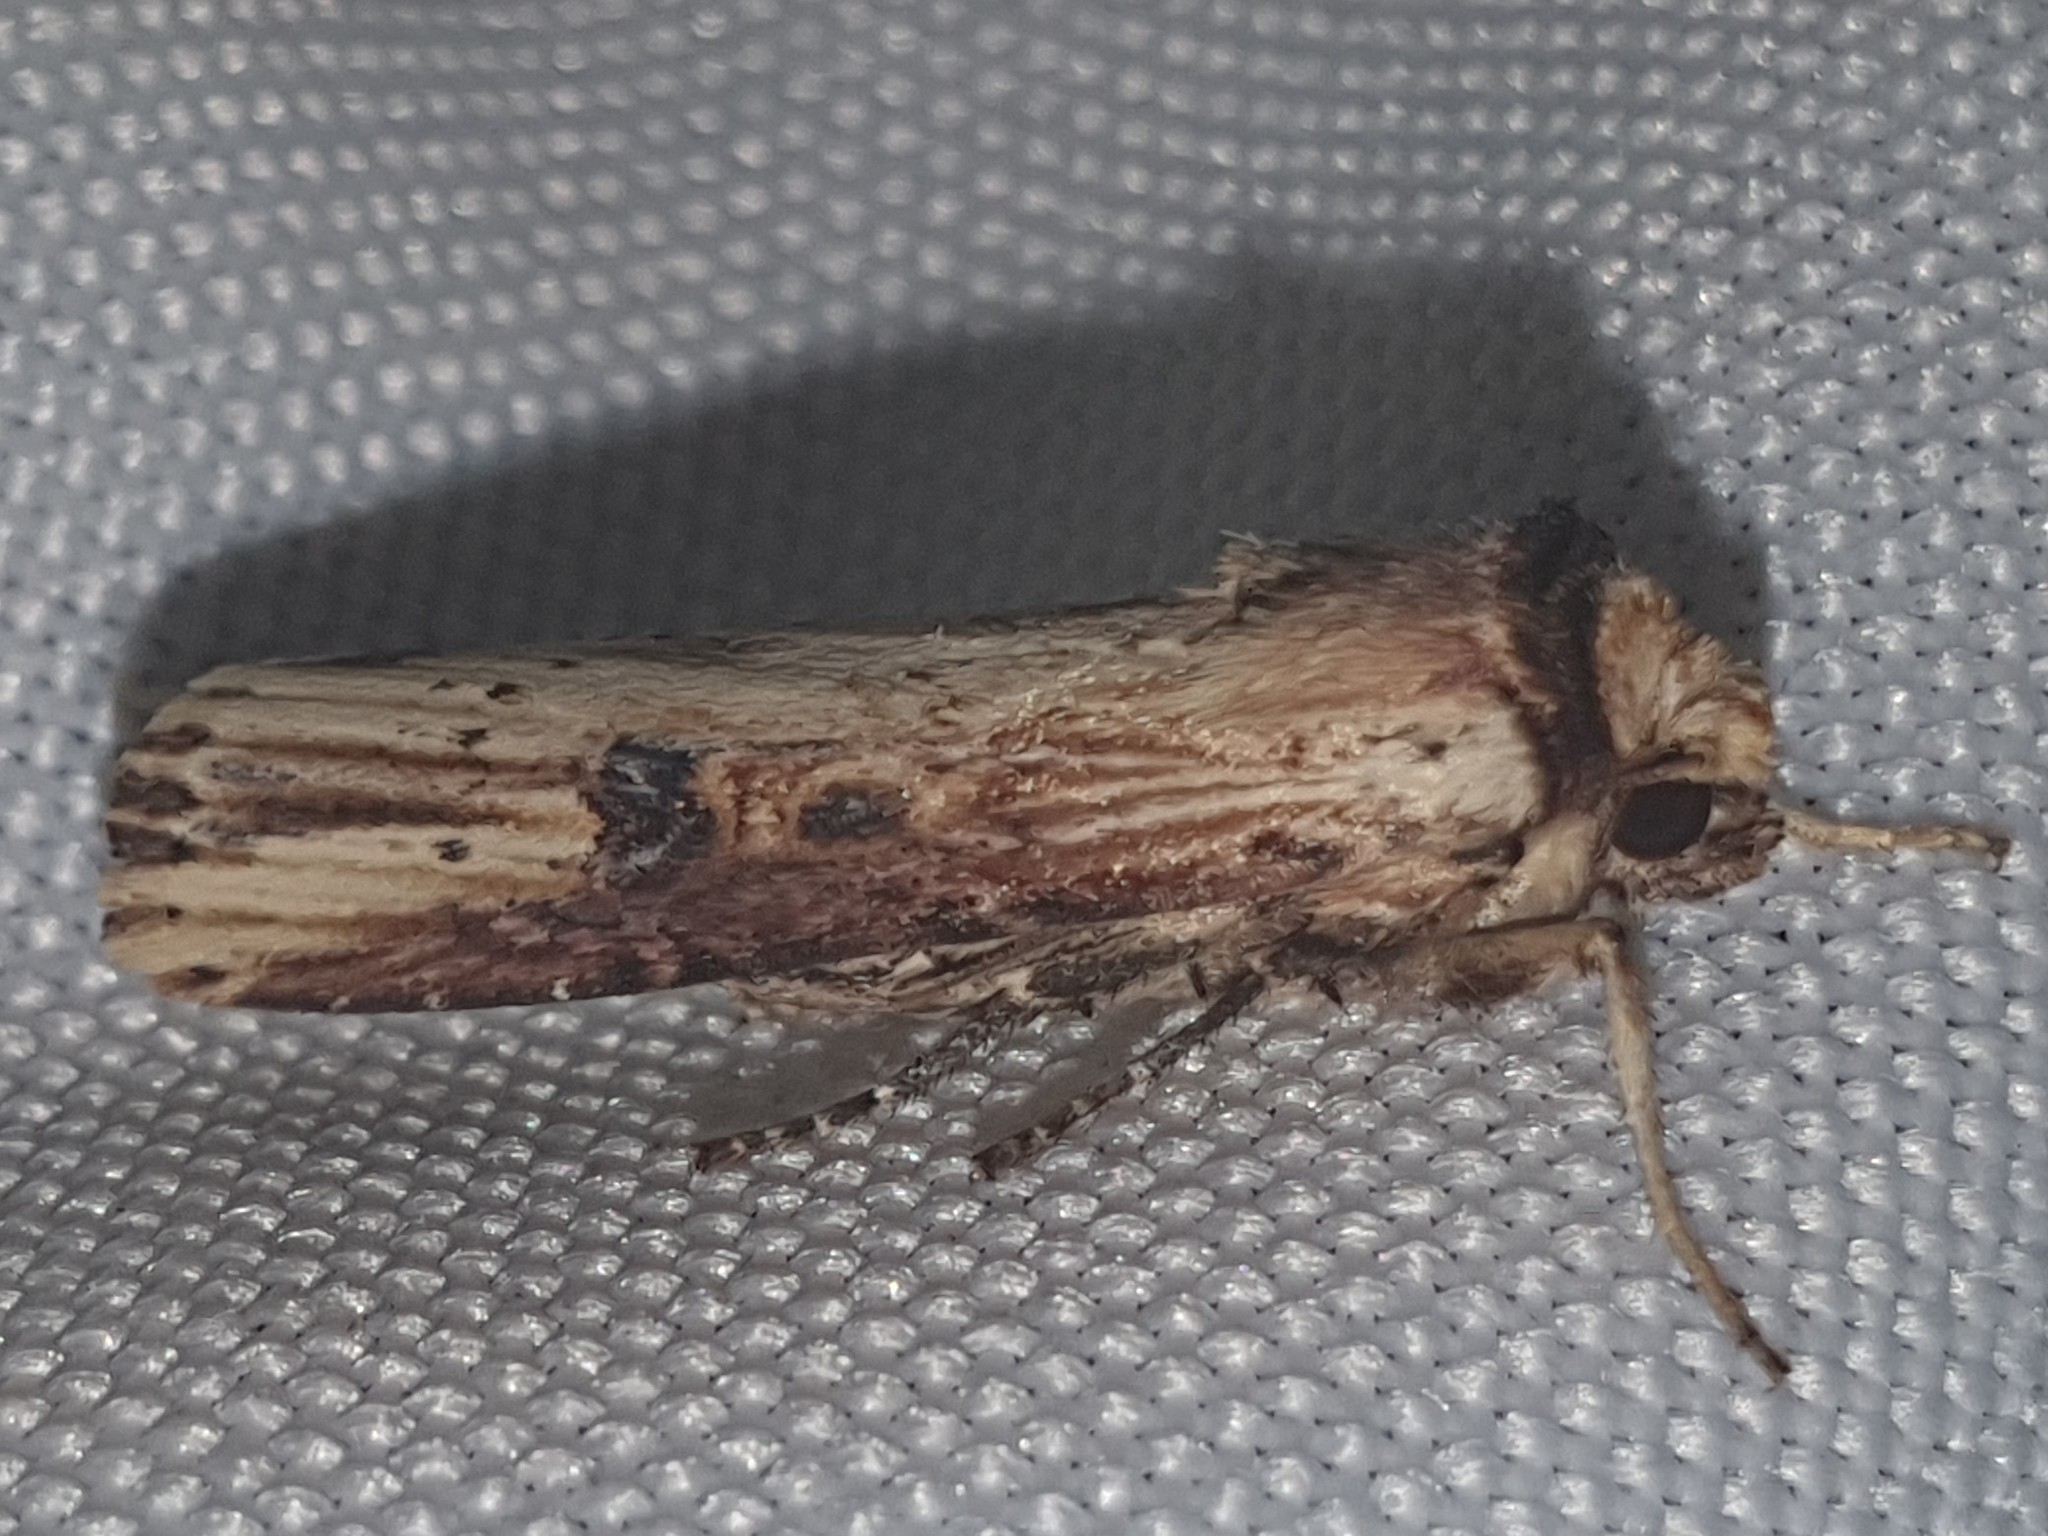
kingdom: Animalia
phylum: Arthropoda
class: Insecta
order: Lepidoptera
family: Noctuidae
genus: Axylia
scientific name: Axylia putris
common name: Flame
